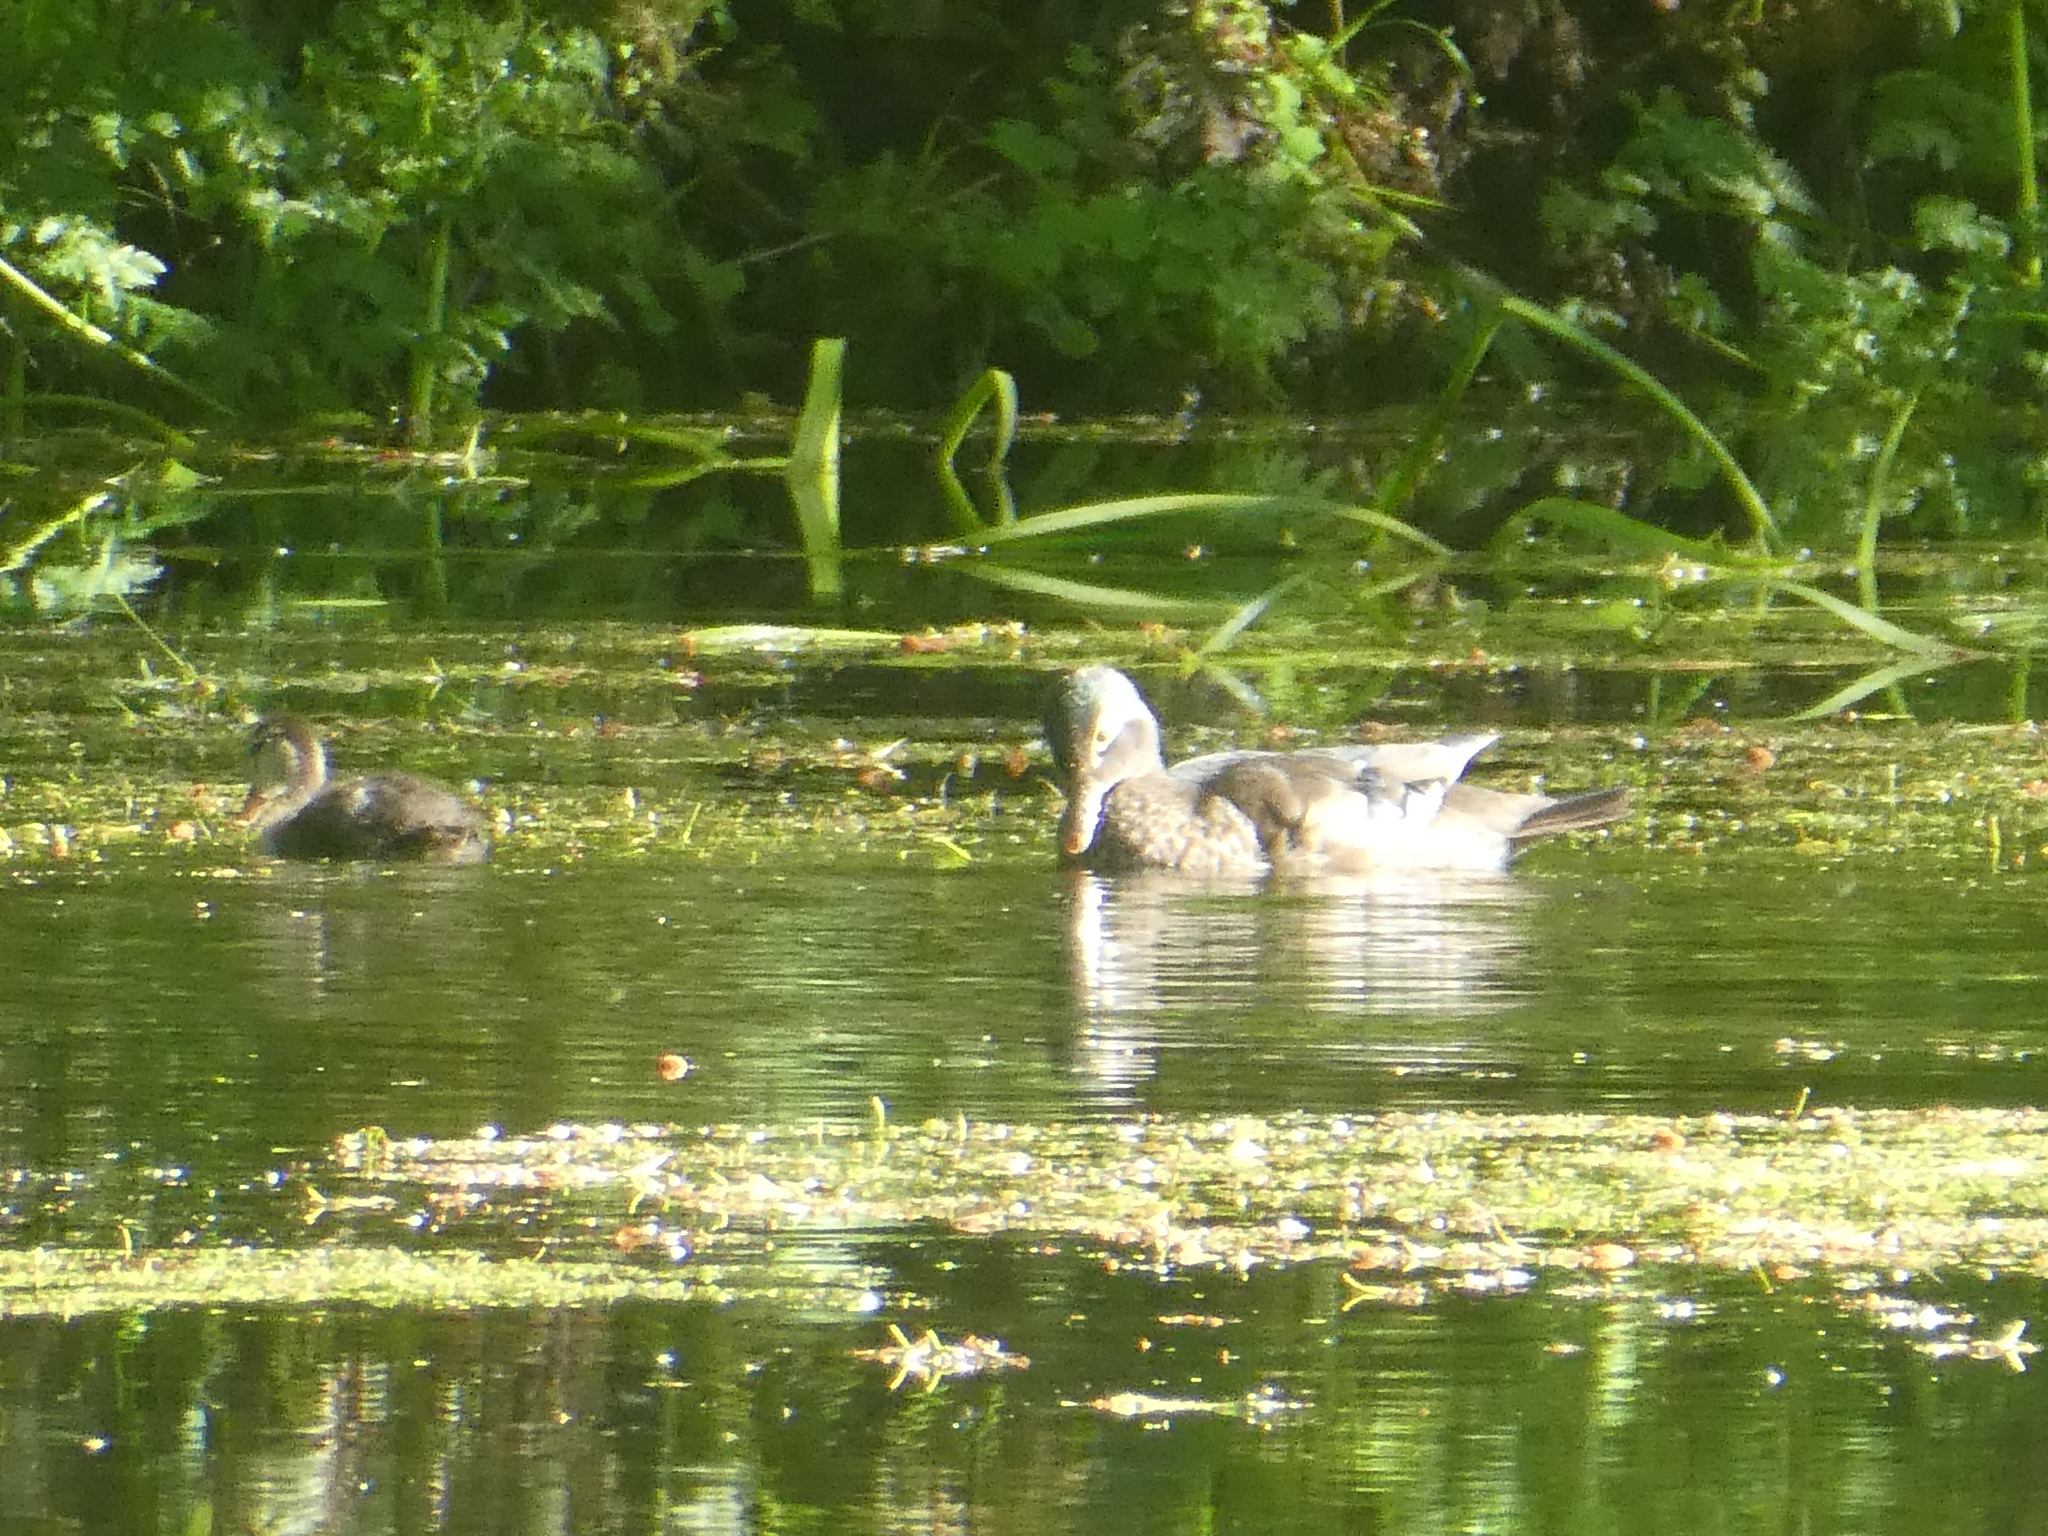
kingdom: Animalia
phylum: Chordata
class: Aves
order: Anseriformes
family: Anatidae
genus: Aix
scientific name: Aix sponsa
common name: Wood duck
